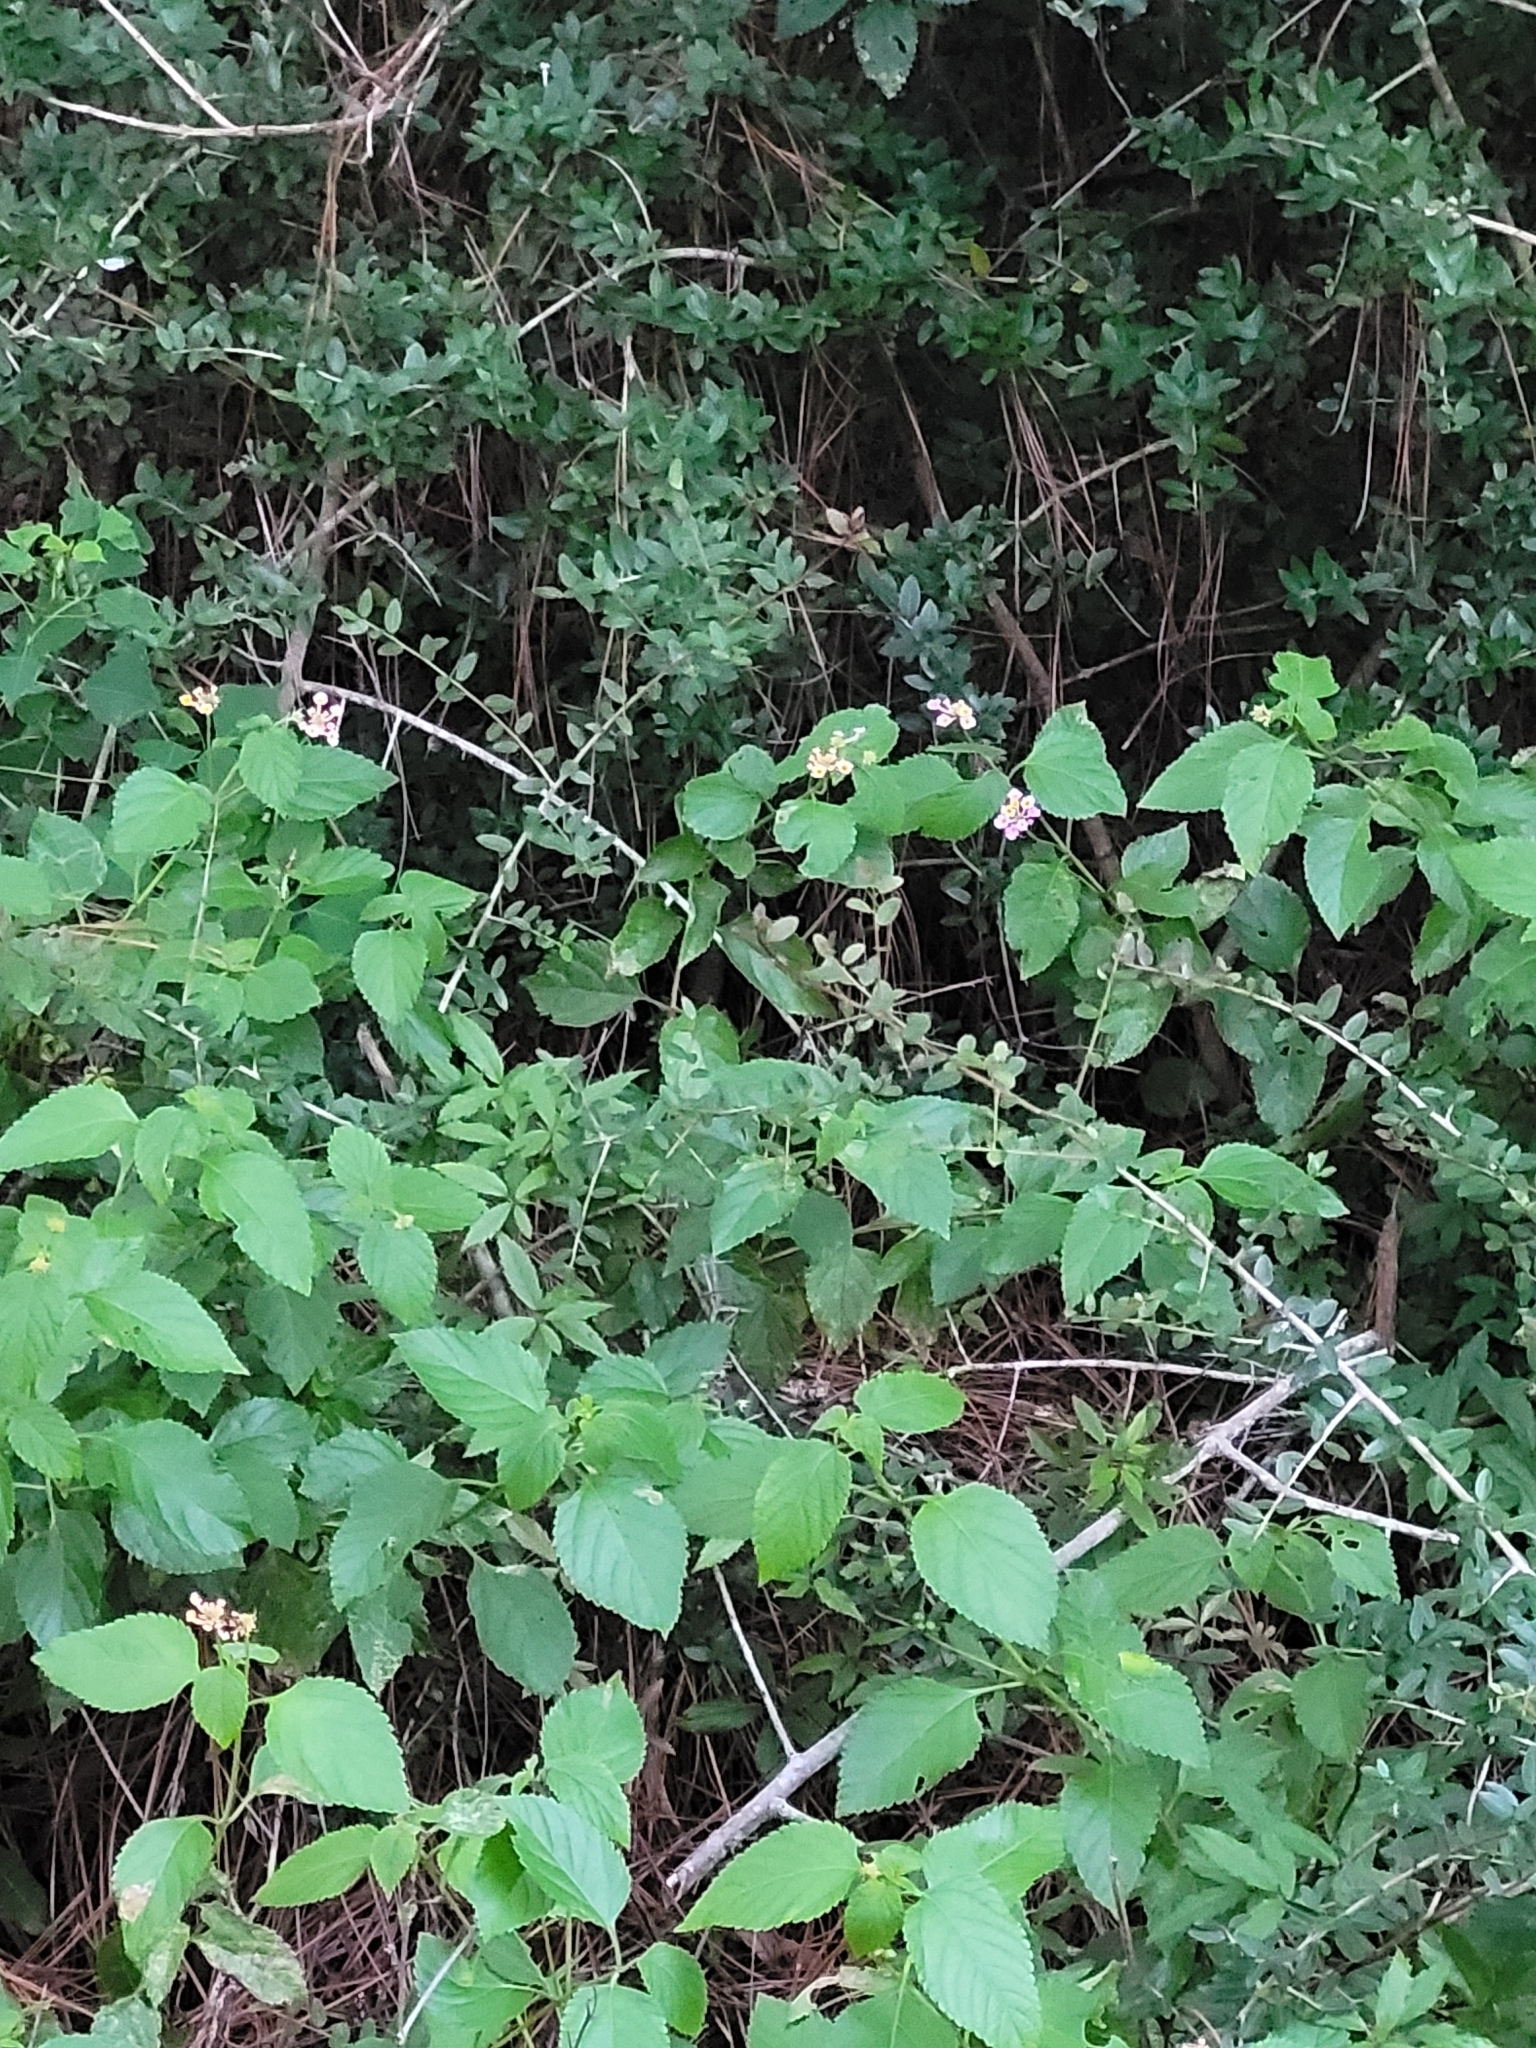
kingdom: Plantae
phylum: Tracheophyta
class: Magnoliopsida
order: Lamiales
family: Verbenaceae
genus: Lantana
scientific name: Lantana strigocamara
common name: Lantana
